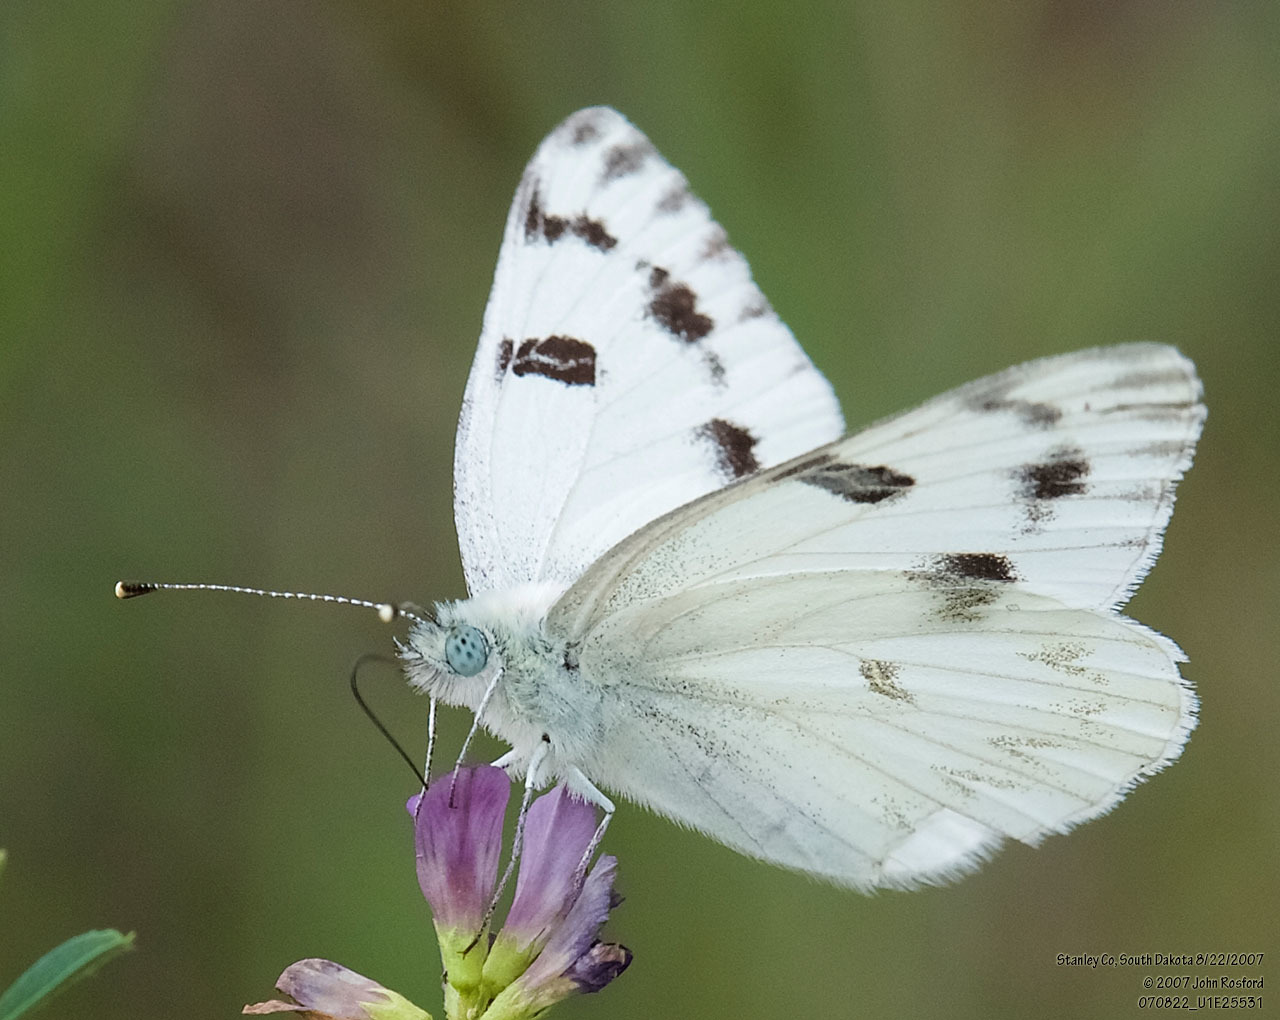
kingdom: Animalia
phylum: Arthropoda
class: Insecta
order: Lepidoptera
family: Pieridae
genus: Pontia
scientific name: Pontia protodice
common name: Checkered white
